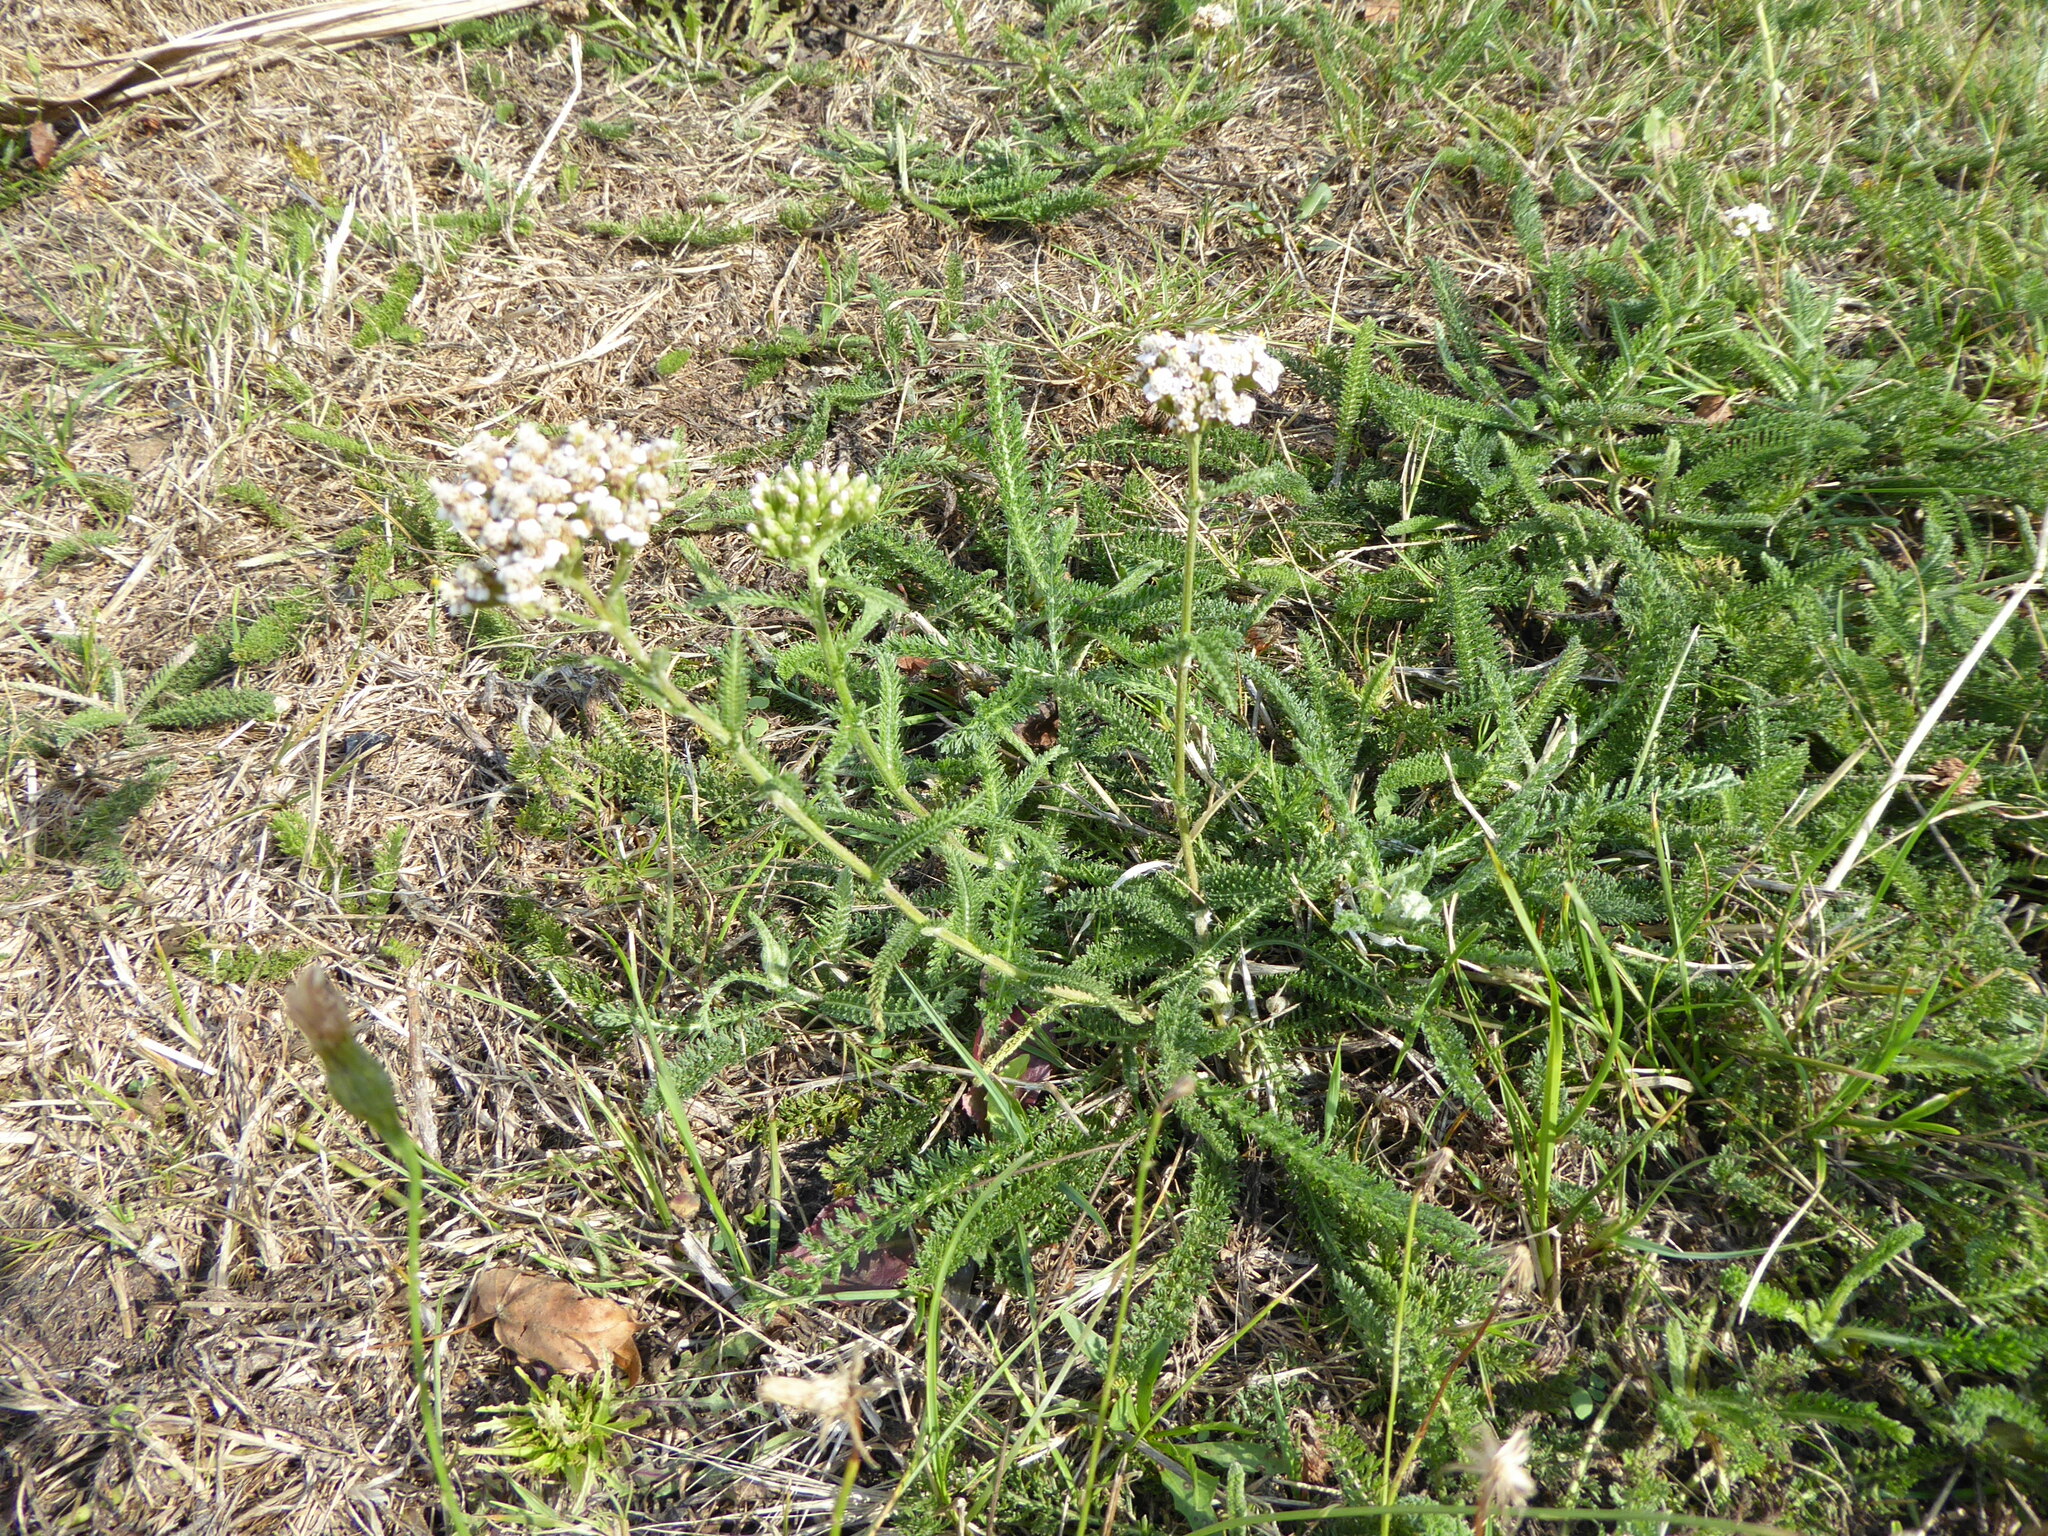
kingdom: Plantae
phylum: Tracheophyta
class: Magnoliopsida
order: Asterales
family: Asteraceae
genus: Achillea
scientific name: Achillea millefolium
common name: Yarrow
